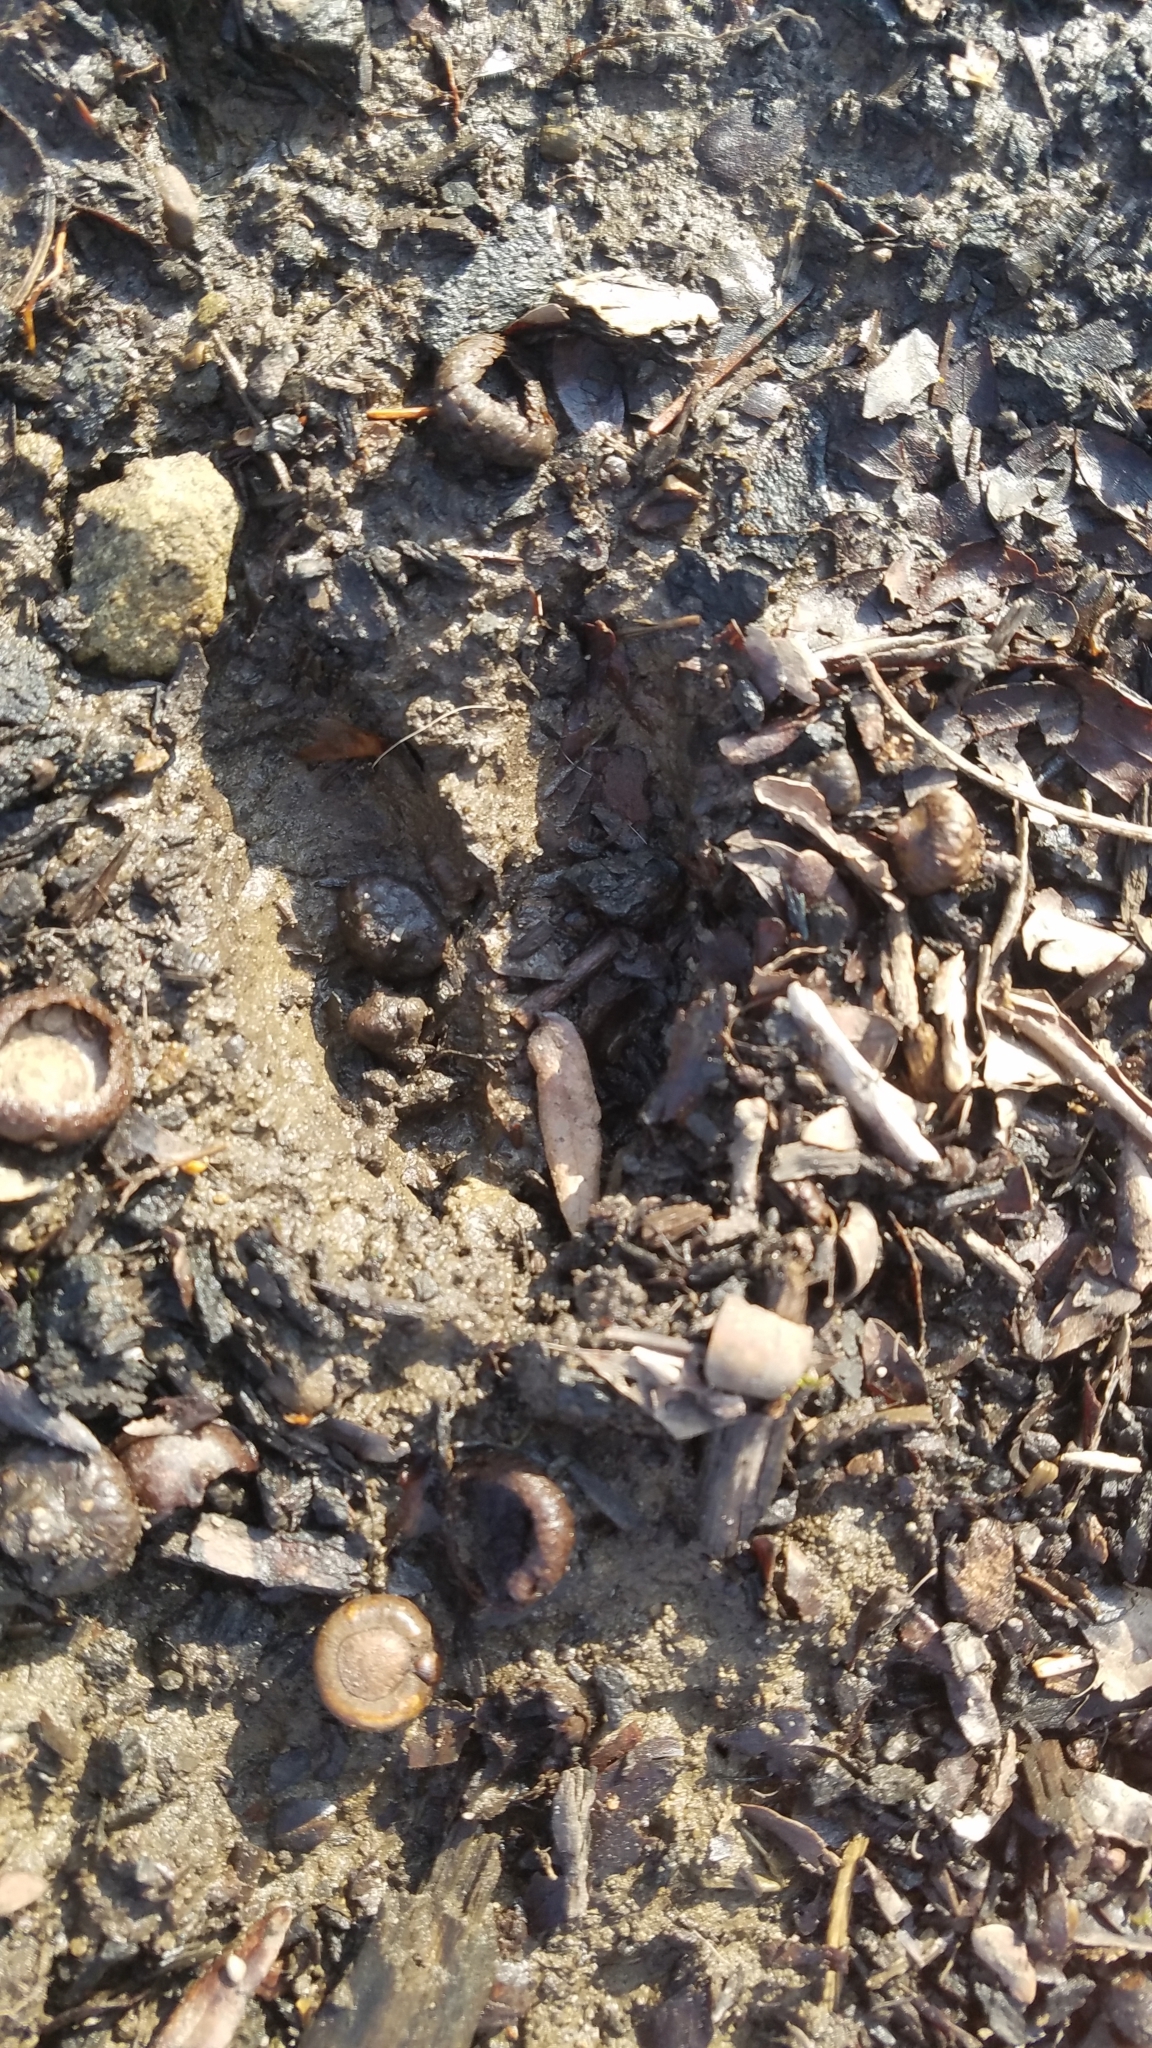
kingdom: Animalia
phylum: Chordata
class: Mammalia
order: Artiodactyla
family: Cervidae
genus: Odocoileus
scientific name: Odocoileus virginianus
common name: White-tailed deer
